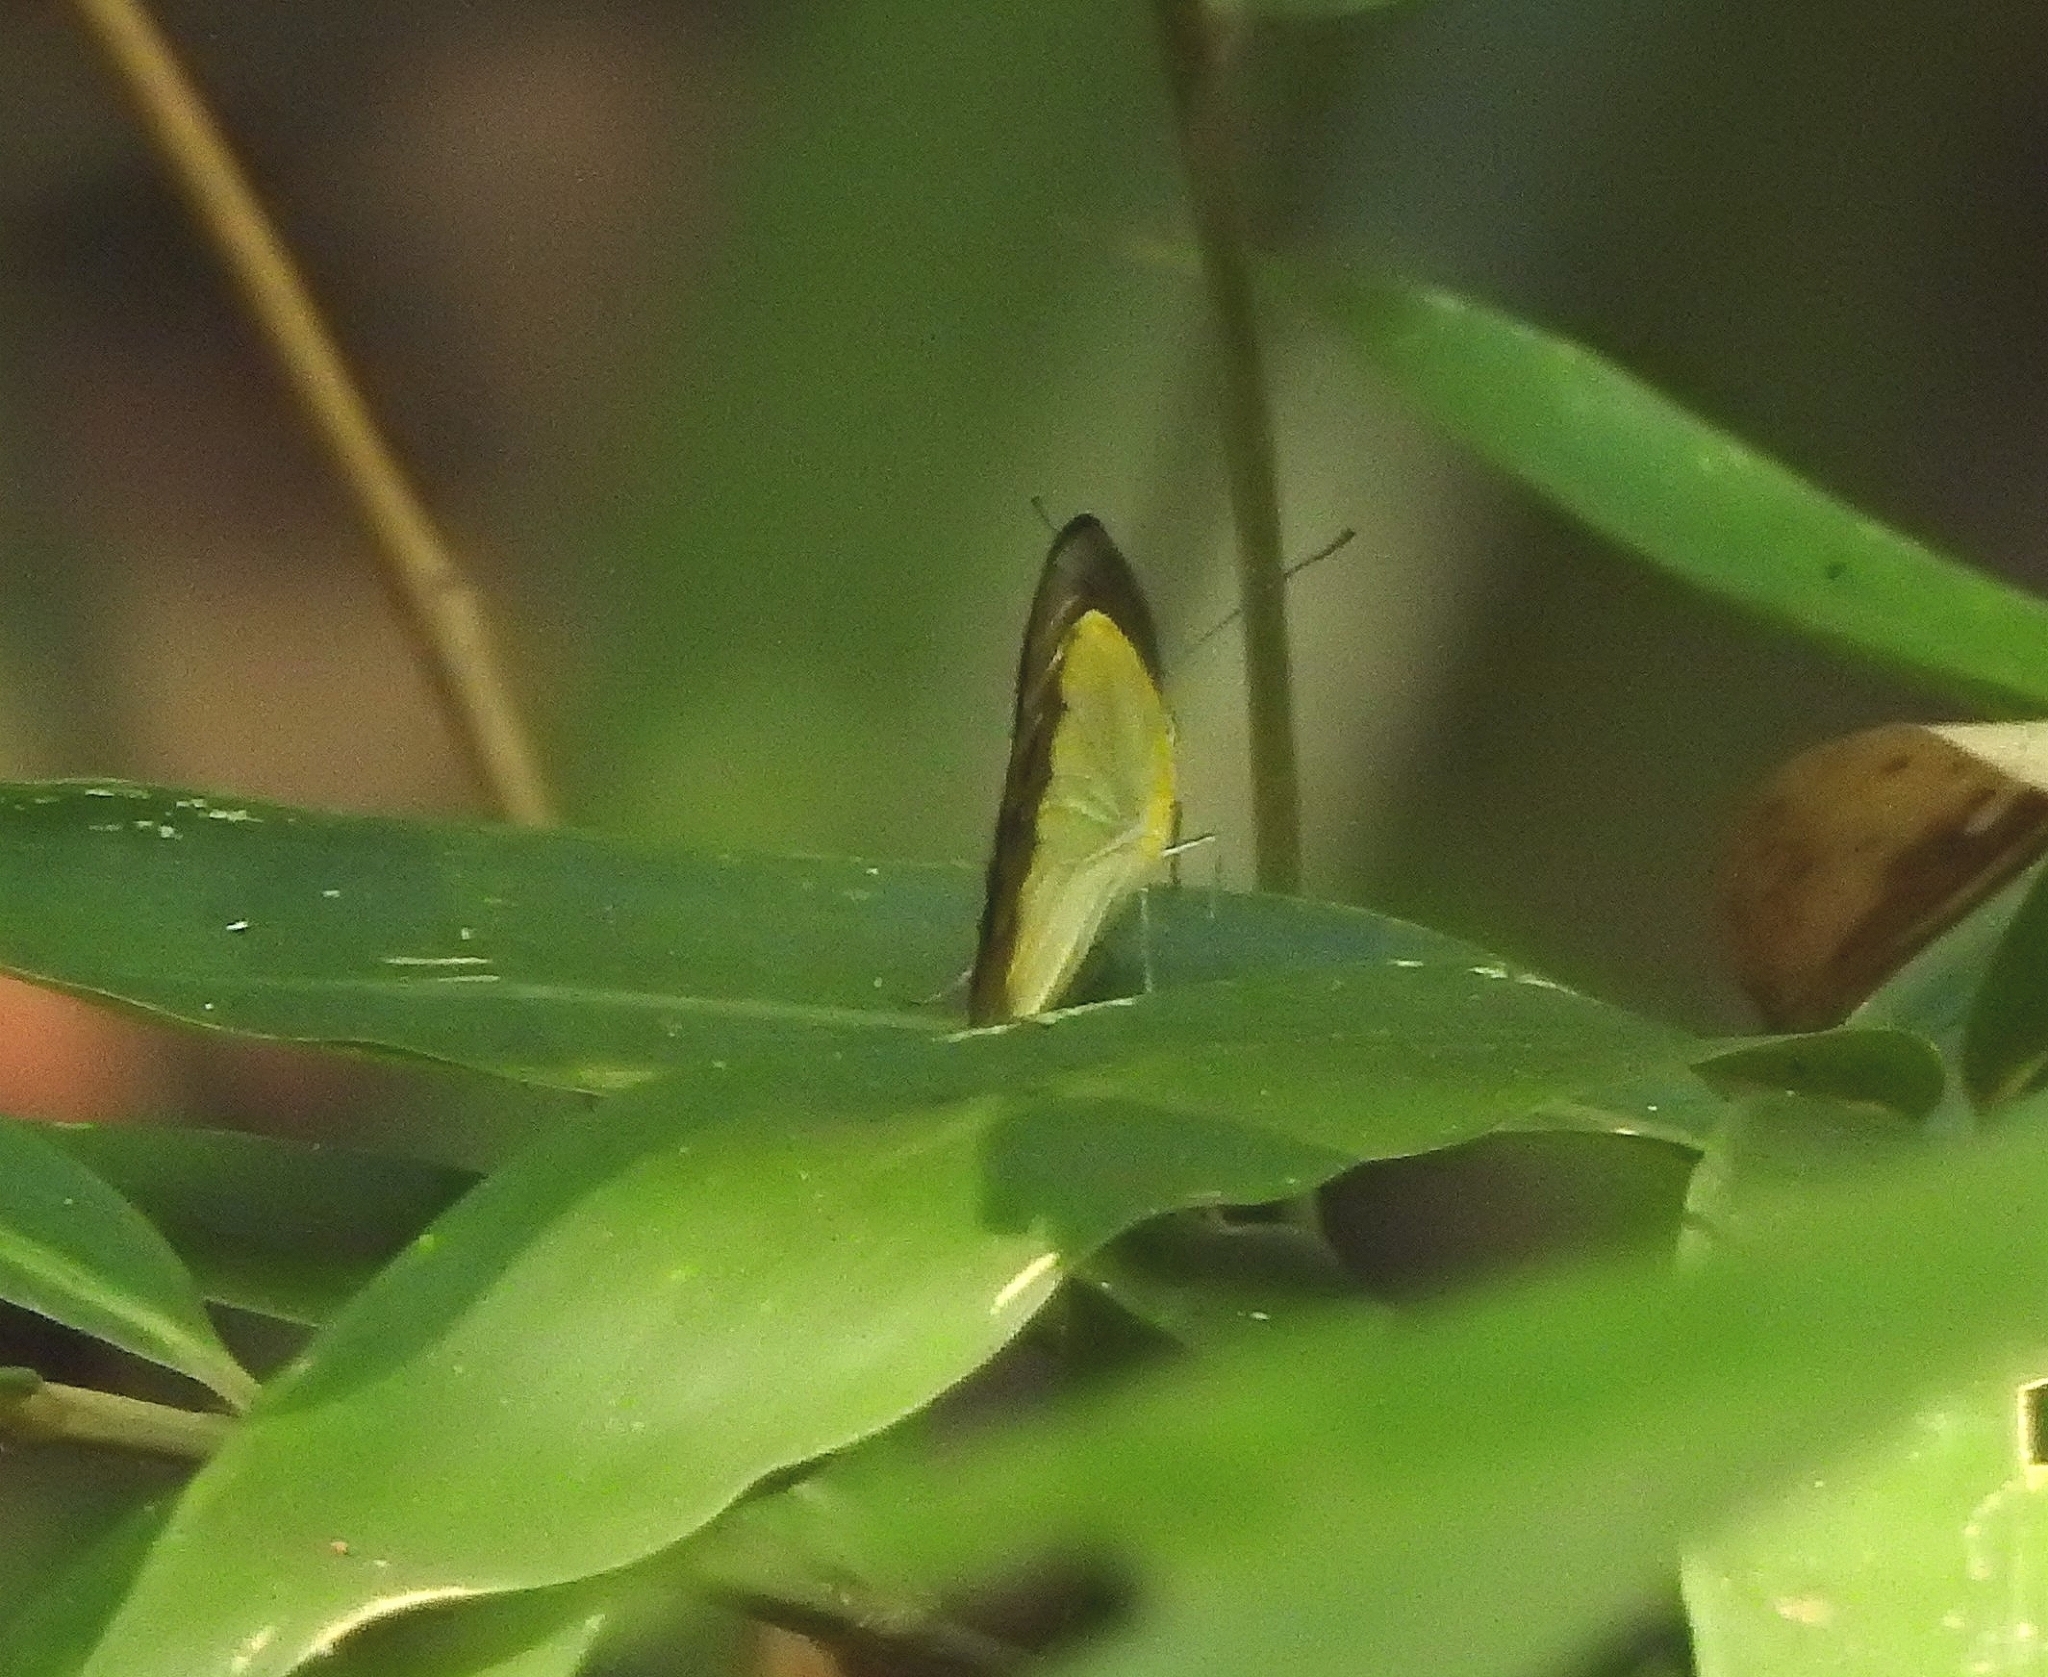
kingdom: Animalia
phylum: Arthropoda
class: Insecta
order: Lepidoptera
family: Pieridae
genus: Appias
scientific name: Appias lyncida
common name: Chocolate albatross
